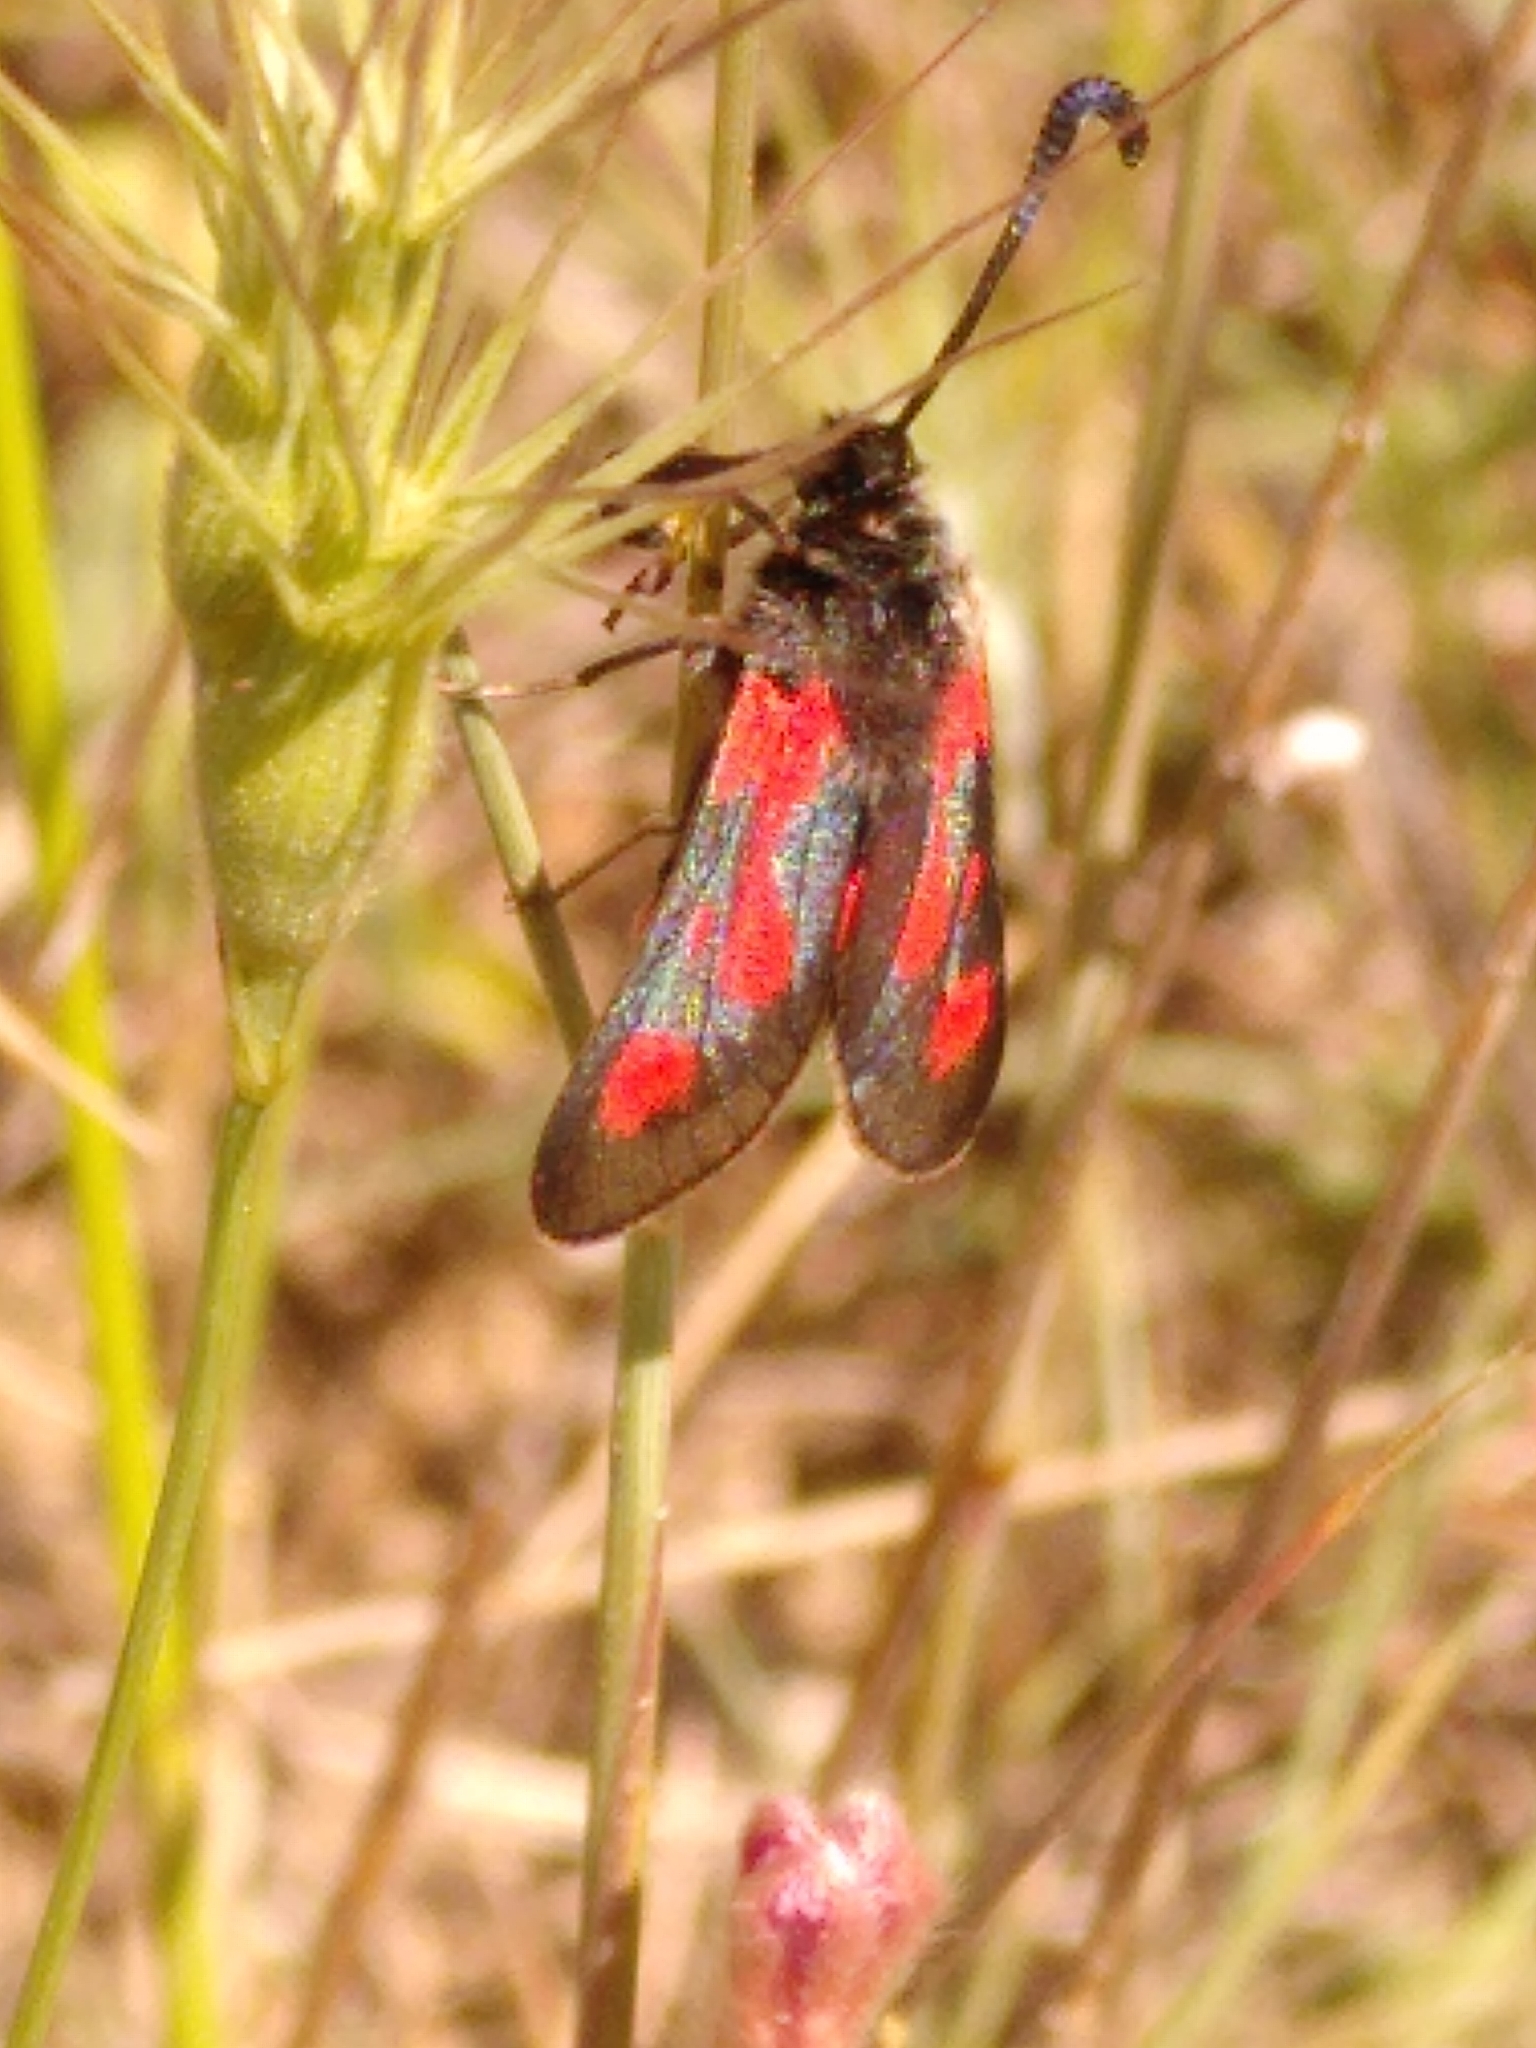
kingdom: Animalia
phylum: Arthropoda
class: Insecta
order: Lepidoptera
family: Zygaenidae
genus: Zygaena
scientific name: Zygaena sarpedon
